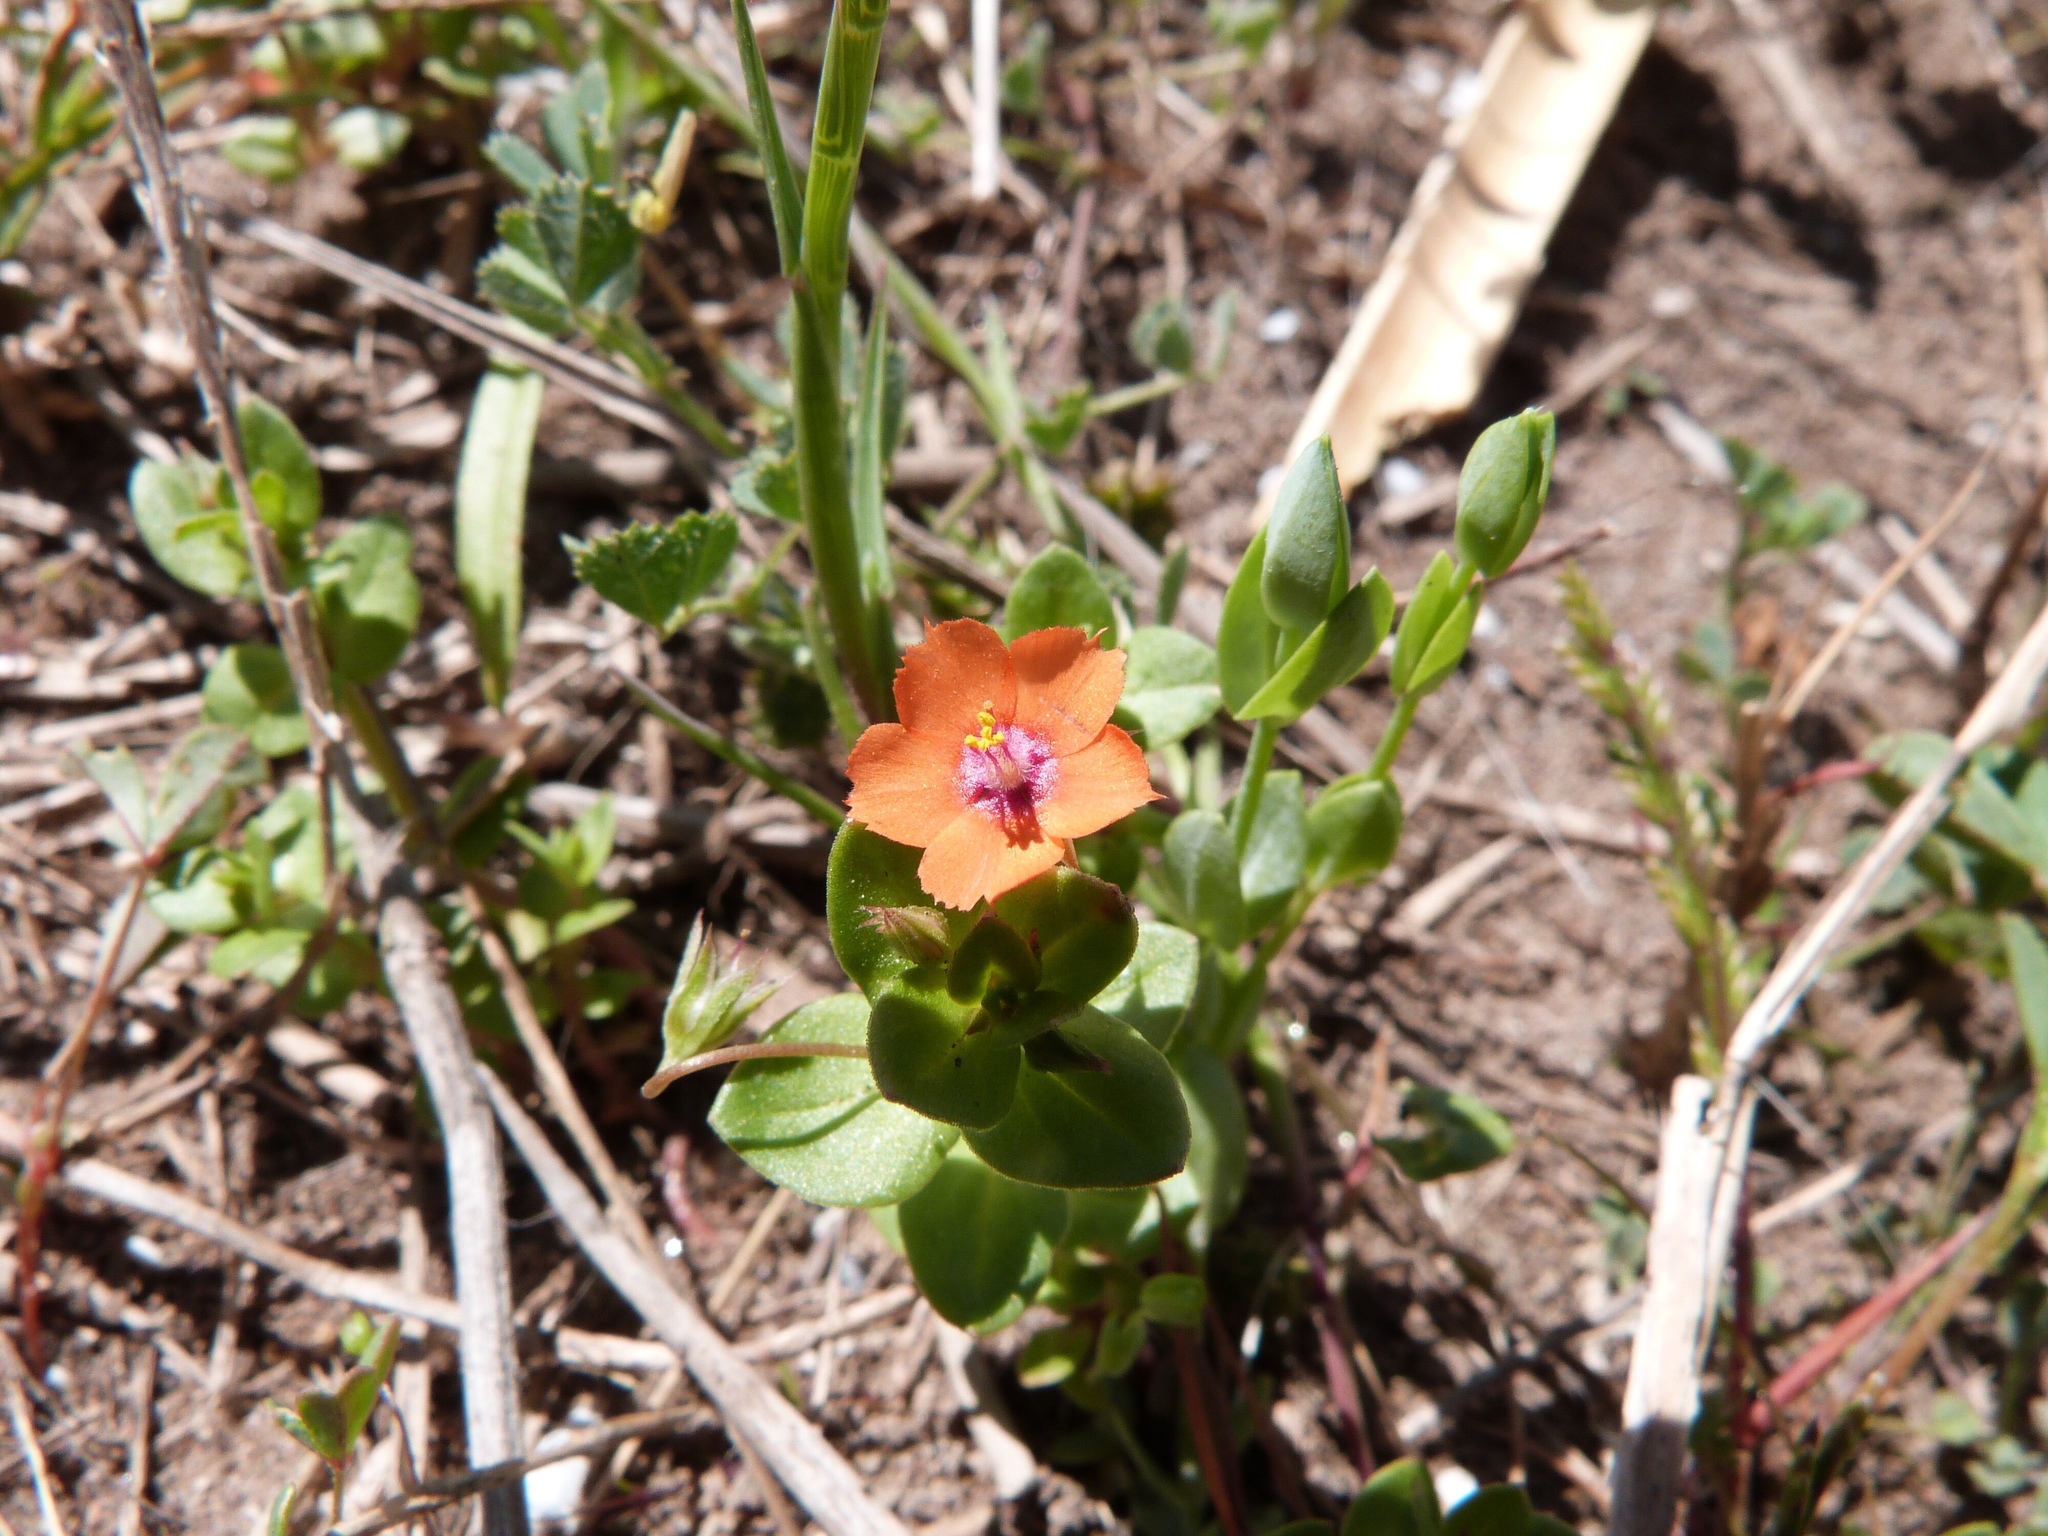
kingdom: Plantae
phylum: Tracheophyta
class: Magnoliopsida
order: Ericales
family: Primulaceae
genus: Lysimachia
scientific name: Lysimachia arvensis
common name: Scarlet pimpernel
